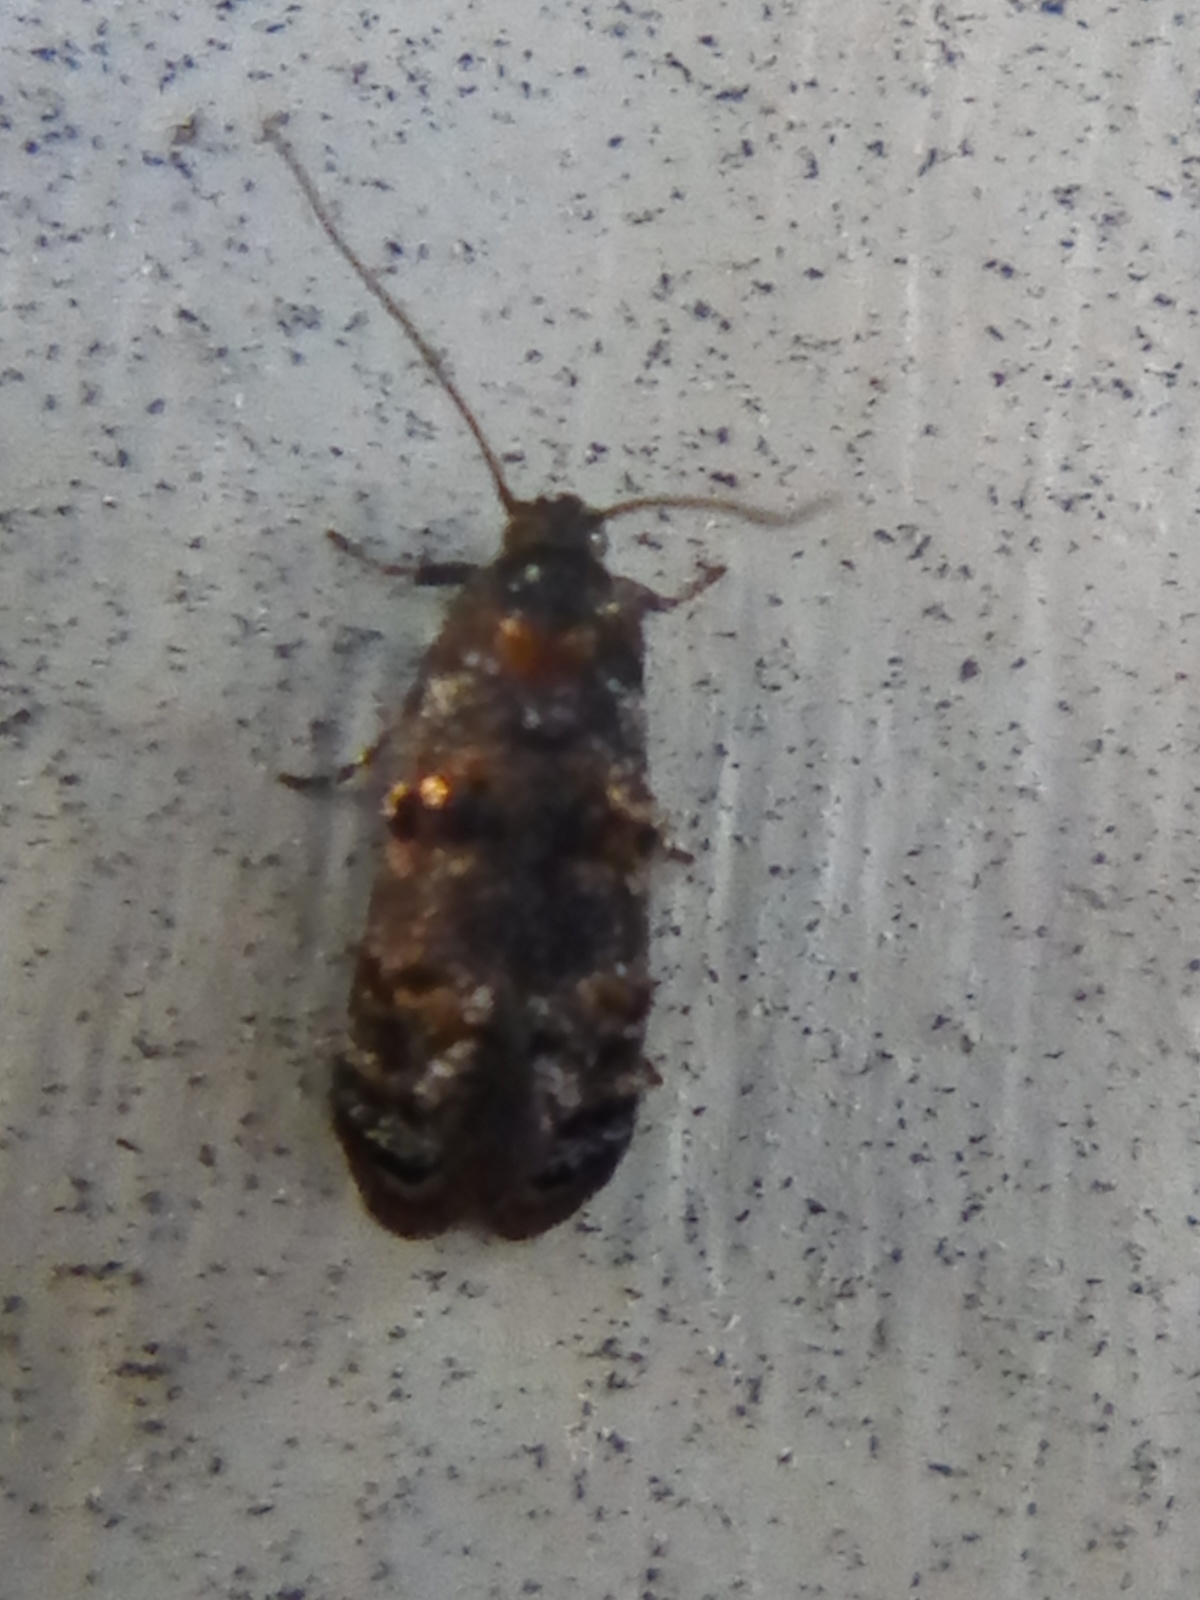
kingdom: Animalia
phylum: Arthropoda
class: Insecta
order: Lepidoptera
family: Oecophoridae
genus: Corocosma
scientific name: Corocosma memorabilis
